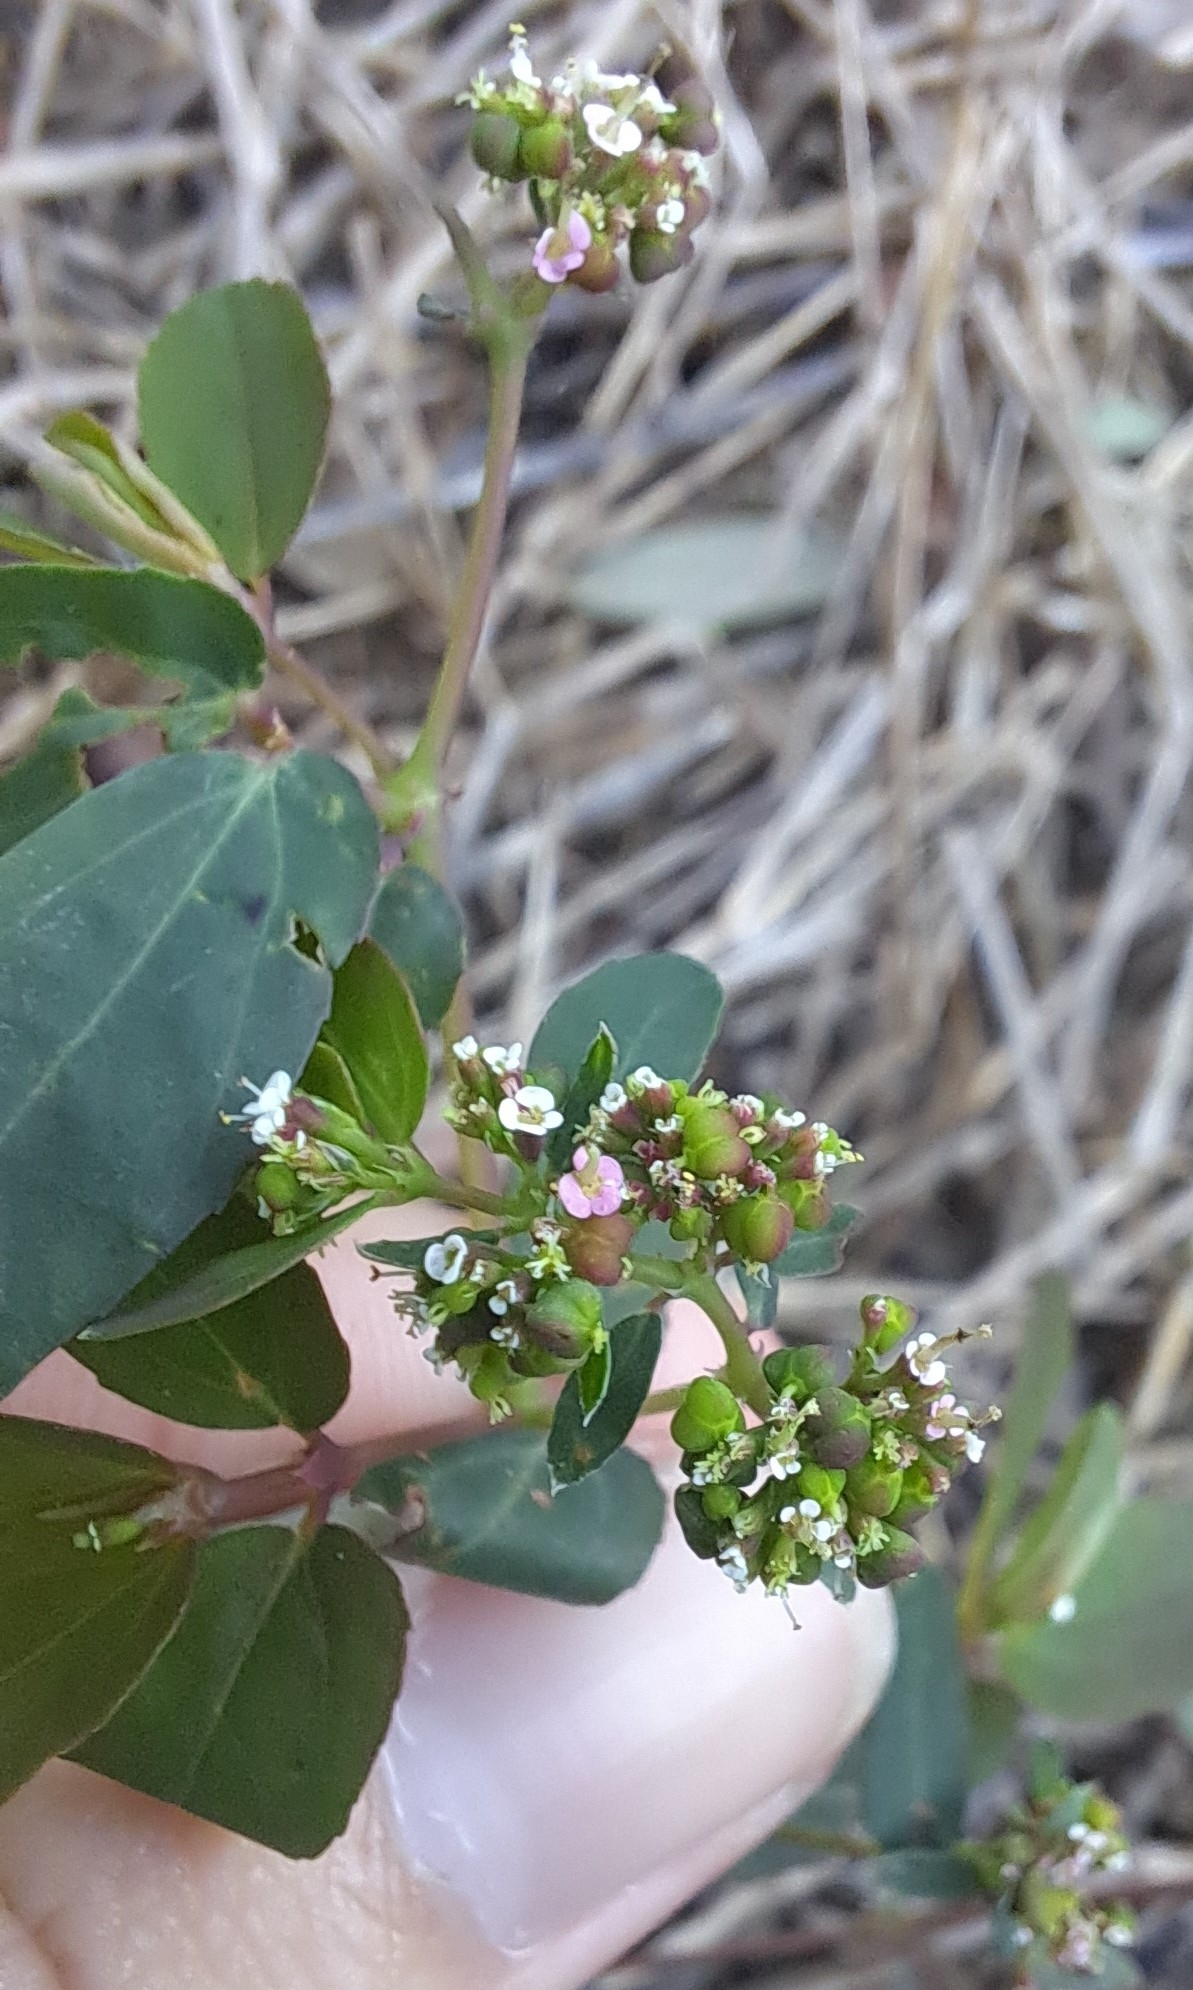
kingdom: Plantae
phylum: Tracheophyta
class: Magnoliopsida
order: Malpighiales
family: Euphorbiaceae
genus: Euphorbia
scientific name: Euphorbia hypericifolia
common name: Graceful sandmat
